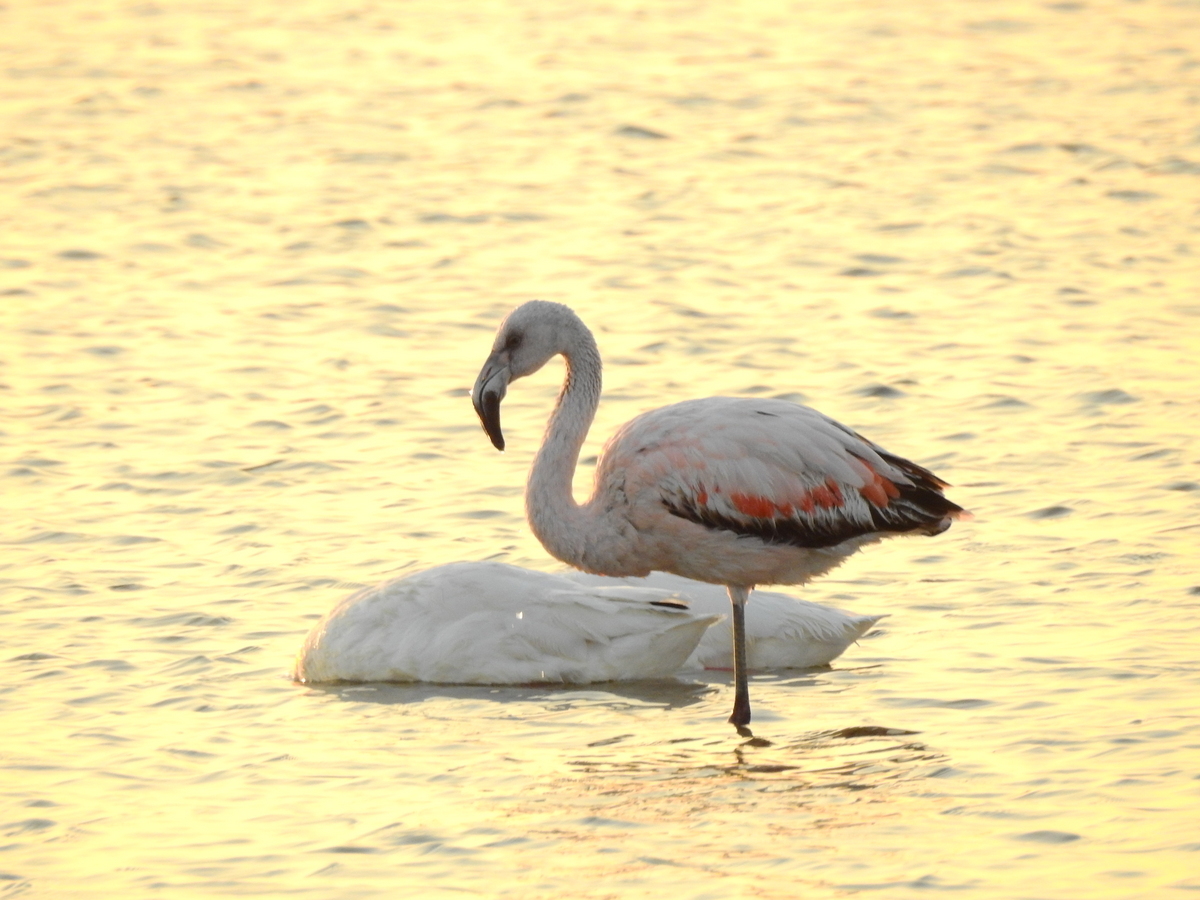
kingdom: Animalia
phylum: Chordata
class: Aves
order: Phoenicopteriformes
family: Phoenicopteridae
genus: Phoenicopterus
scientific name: Phoenicopterus chilensis
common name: Chilean flamingo
